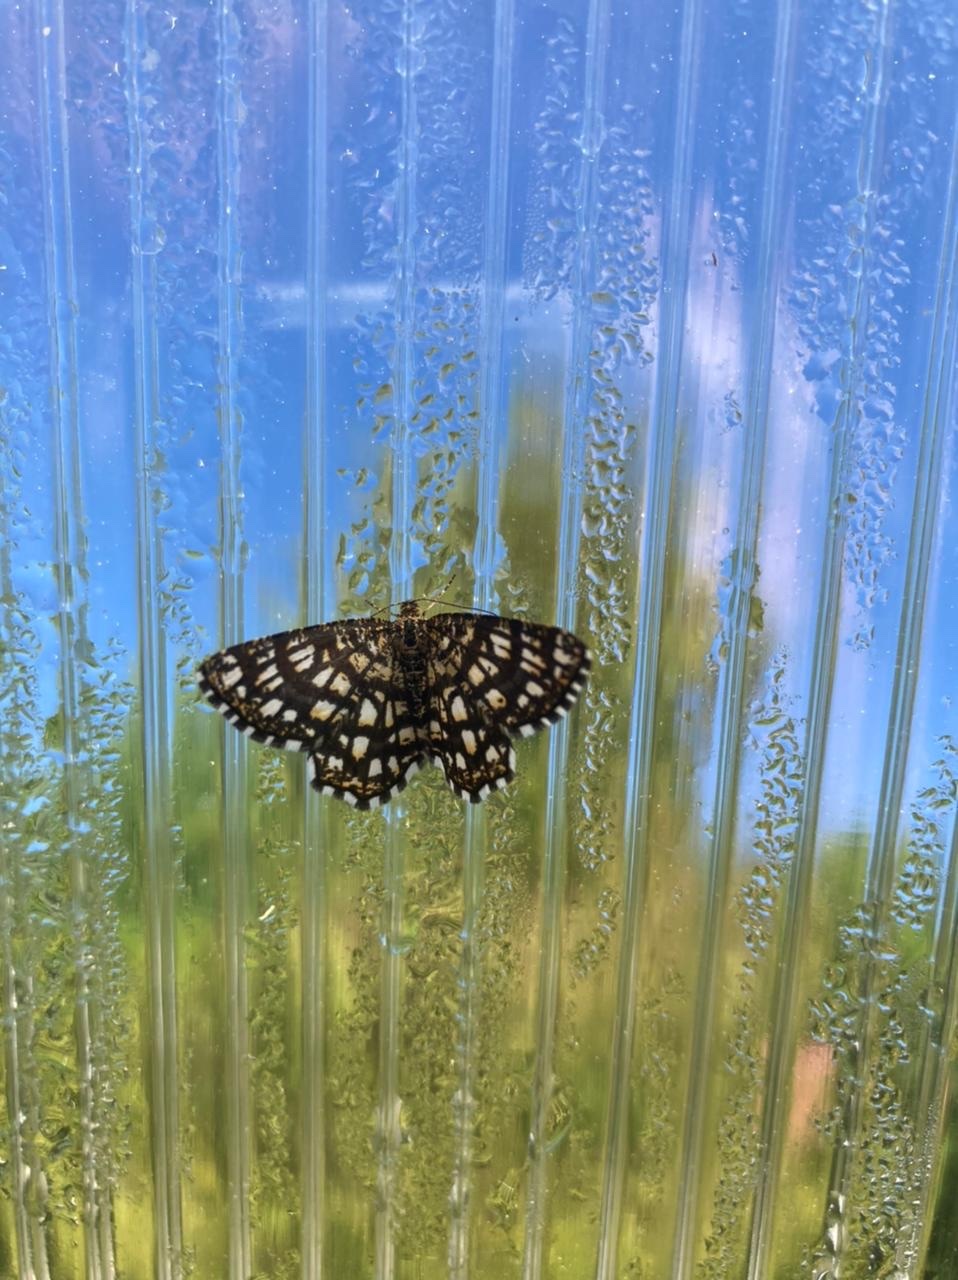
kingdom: Animalia
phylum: Arthropoda
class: Insecta
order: Lepidoptera
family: Geometridae
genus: Chiasmia
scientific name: Chiasmia clathrata
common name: Latticed heath
